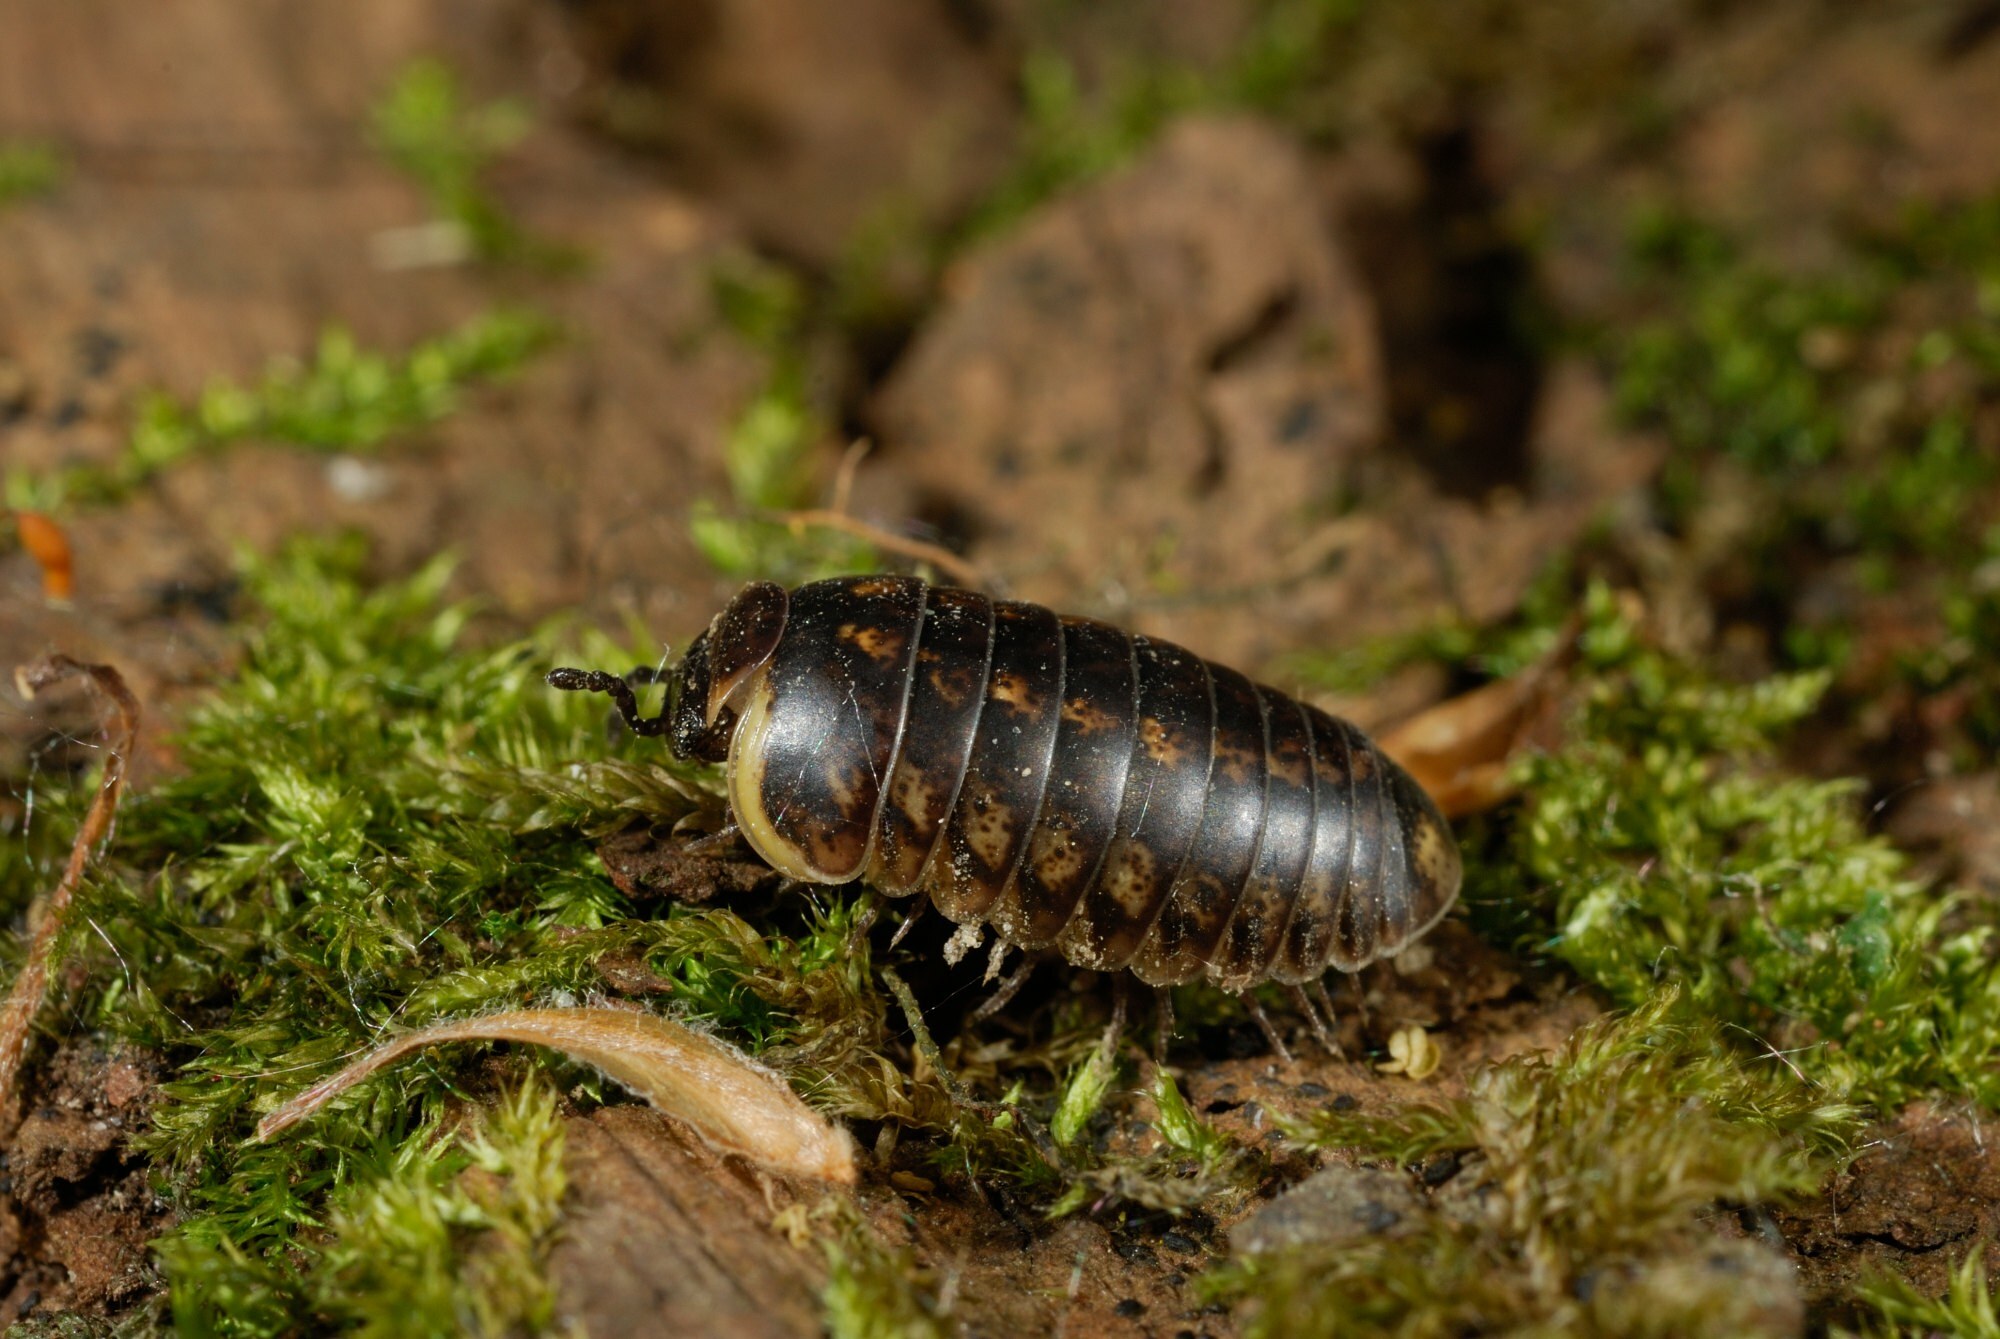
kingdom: Animalia
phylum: Arthropoda
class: Diplopoda
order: Glomerida
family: Glomeridae
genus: Glomeris
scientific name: Glomeris klugii
